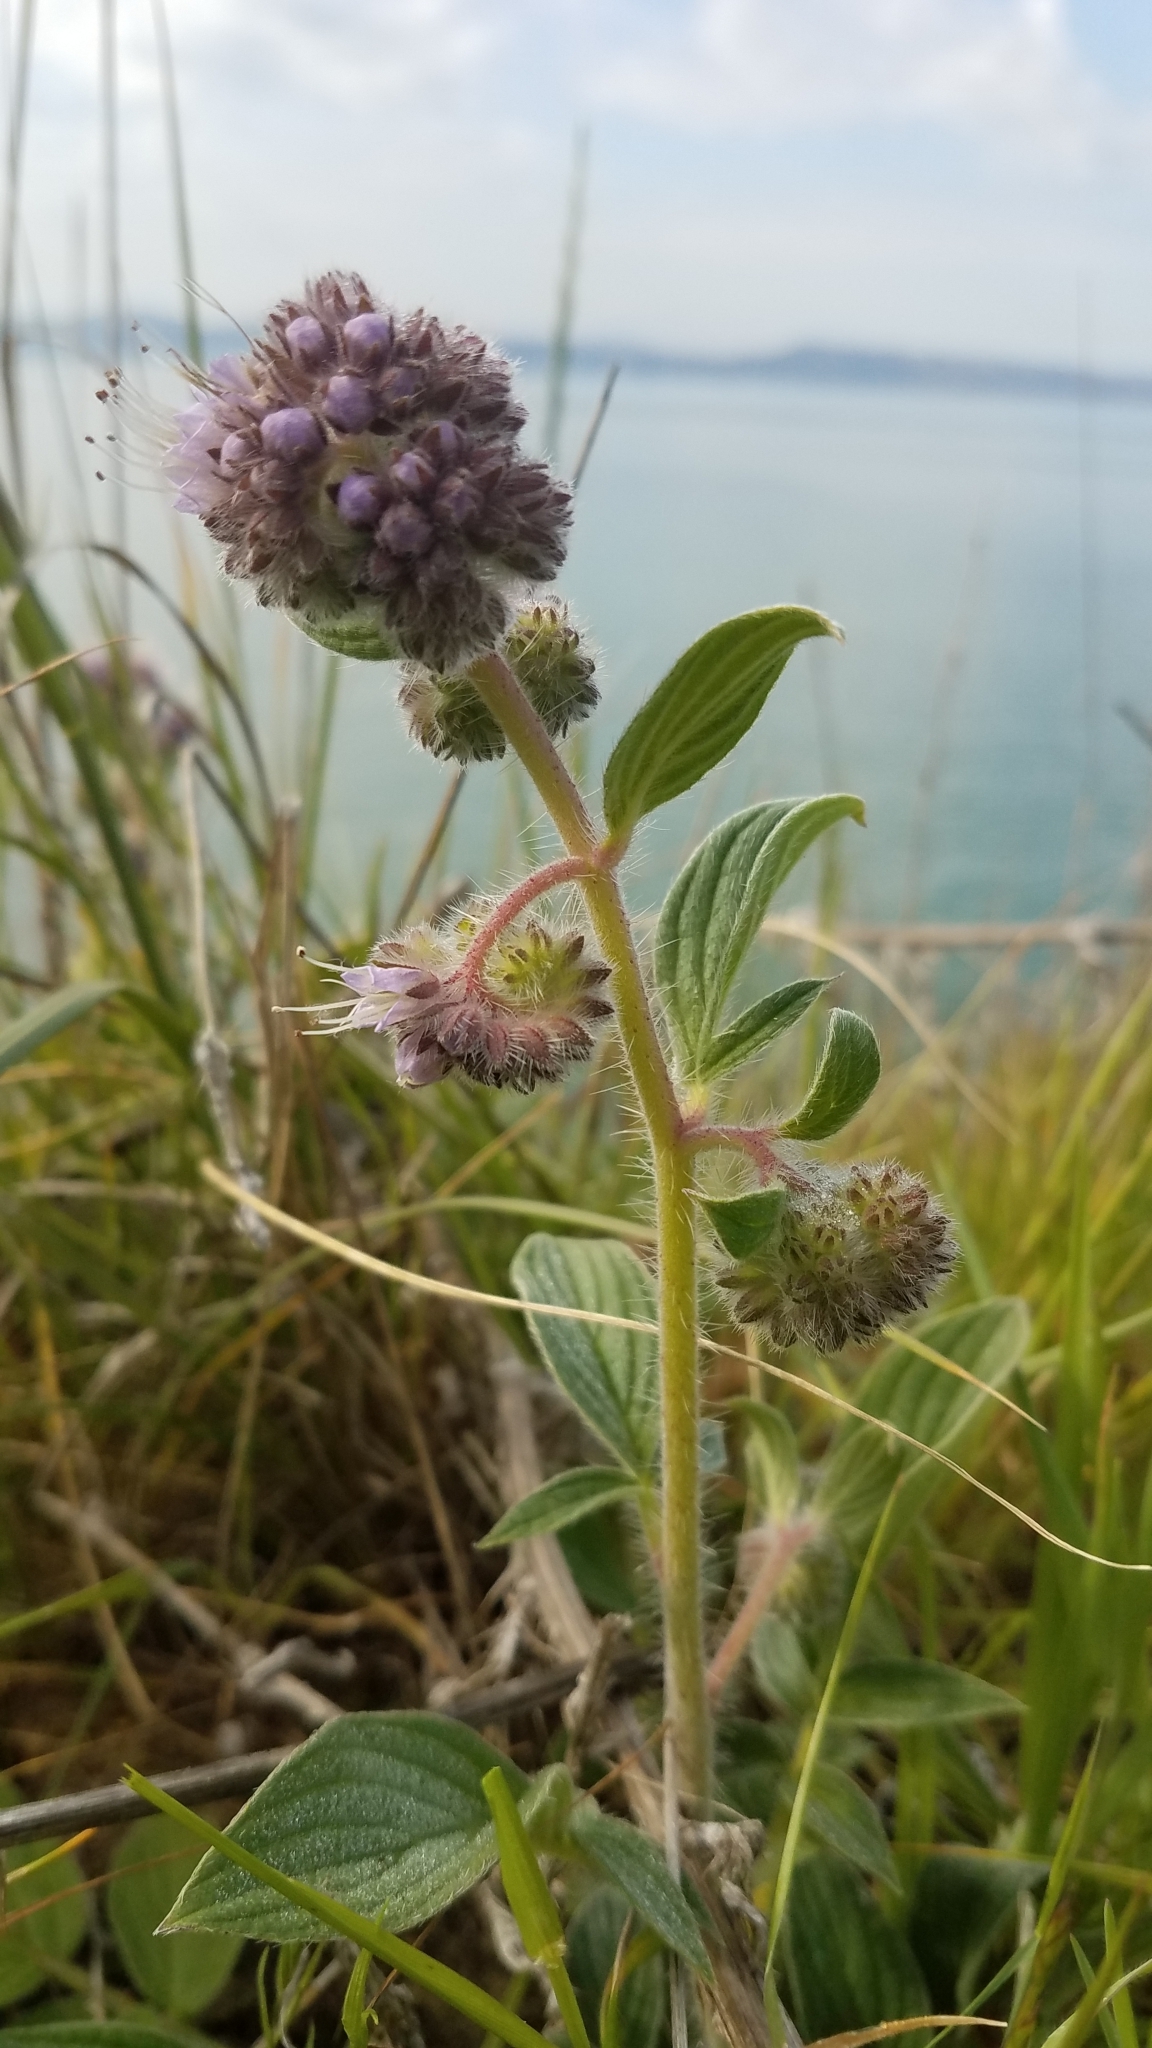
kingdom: Plantae
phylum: Tracheophyta
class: Magnoliopsida
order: Boraginales
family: Hydrophyllaceae
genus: Phacelia
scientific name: Phacelia californica
